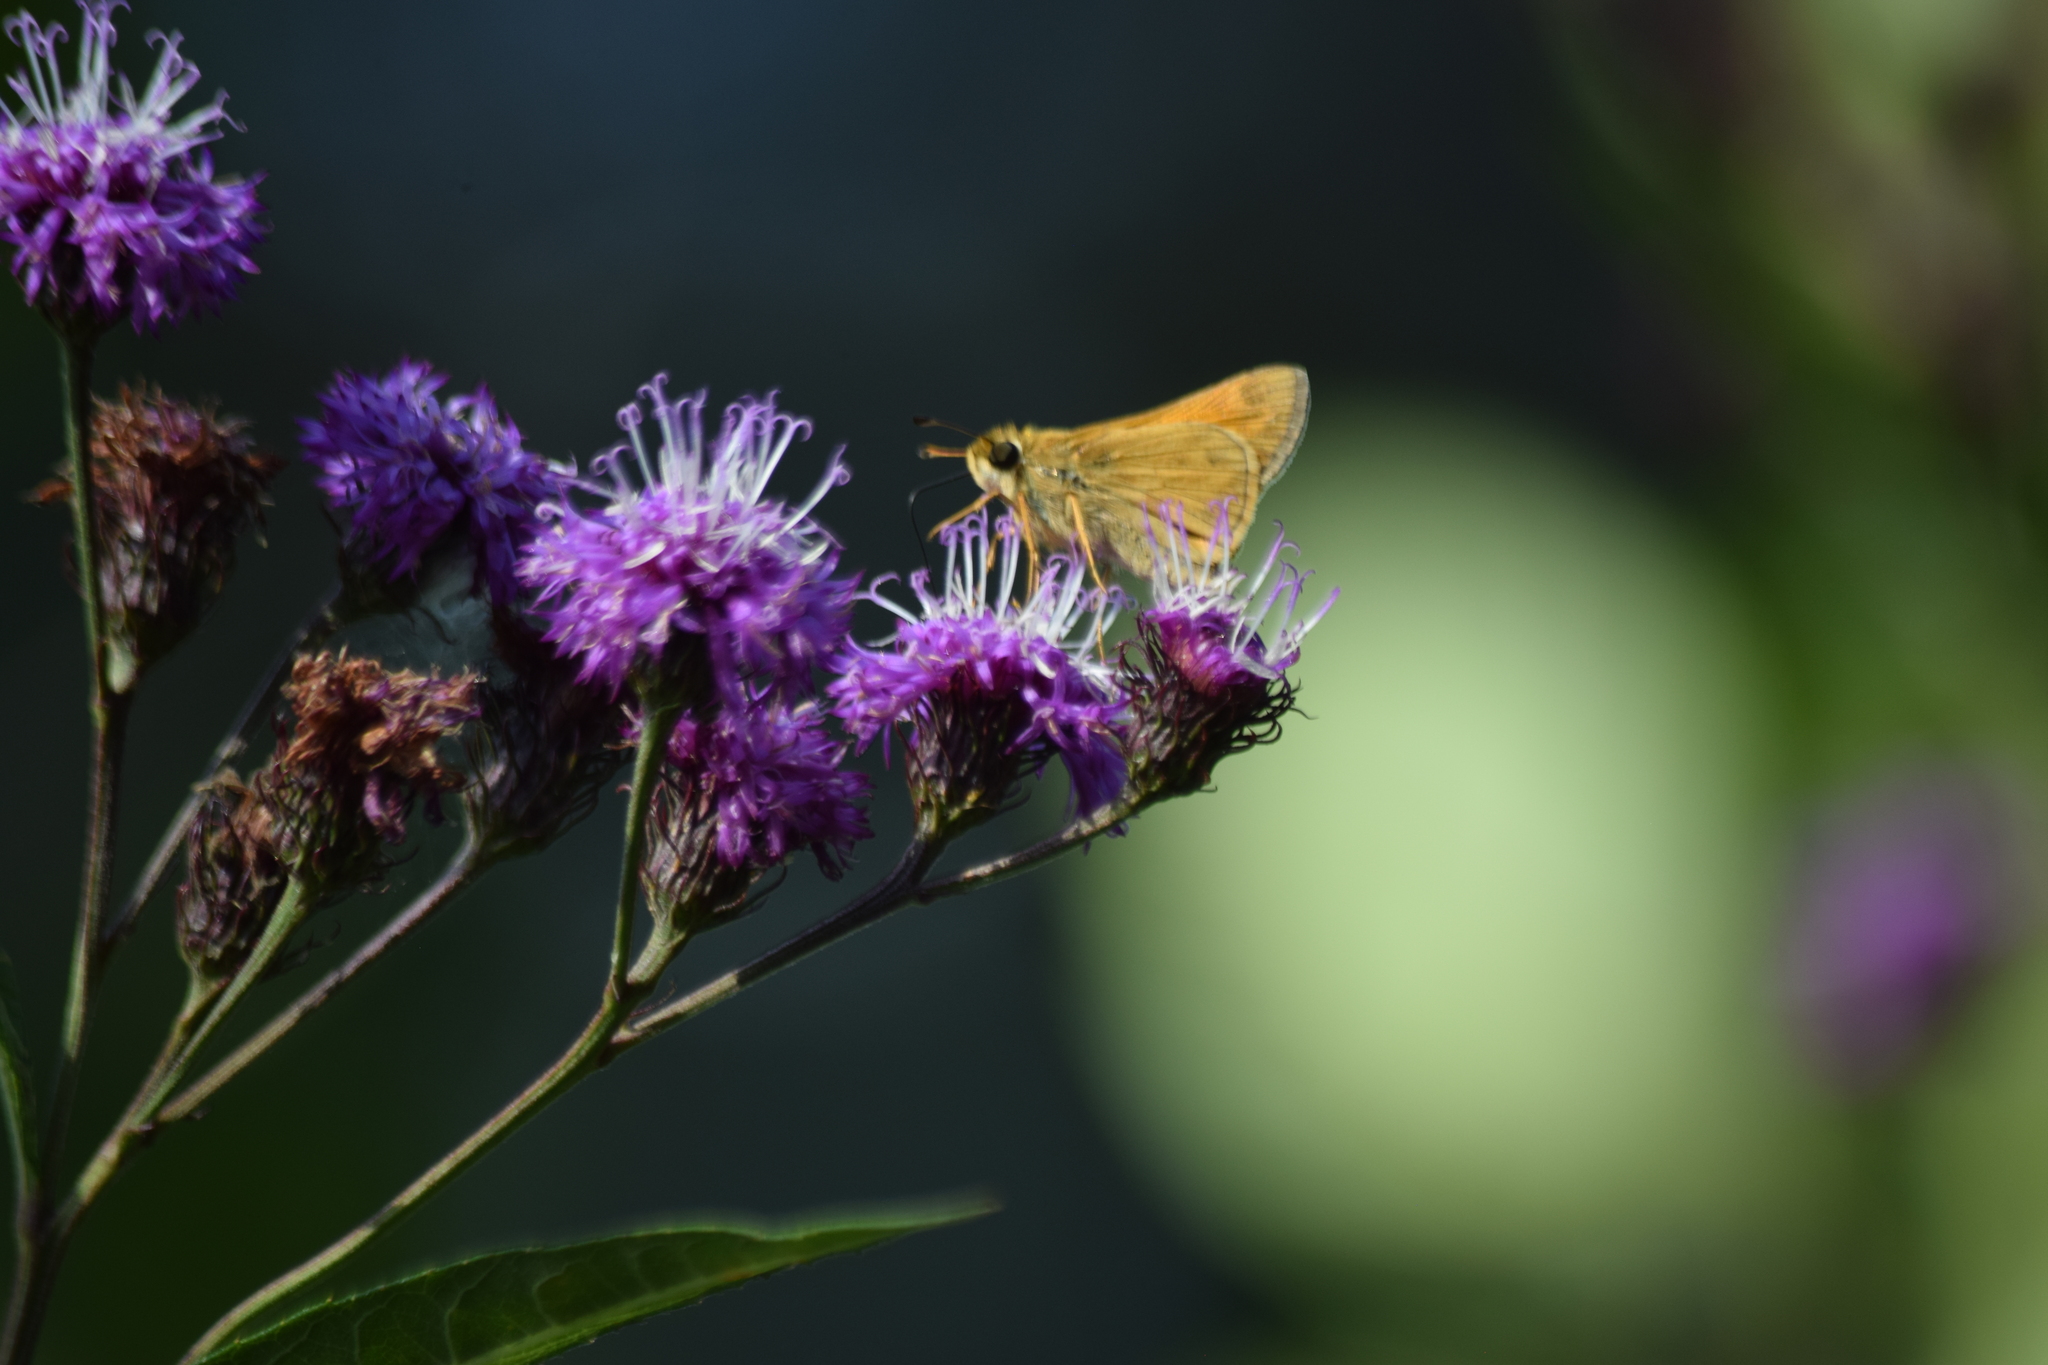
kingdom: Animalia
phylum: Arthropoda
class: Insecta
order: Lepidoptera
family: Hesperiidae
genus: Atalopedes
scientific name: Atalopedes
